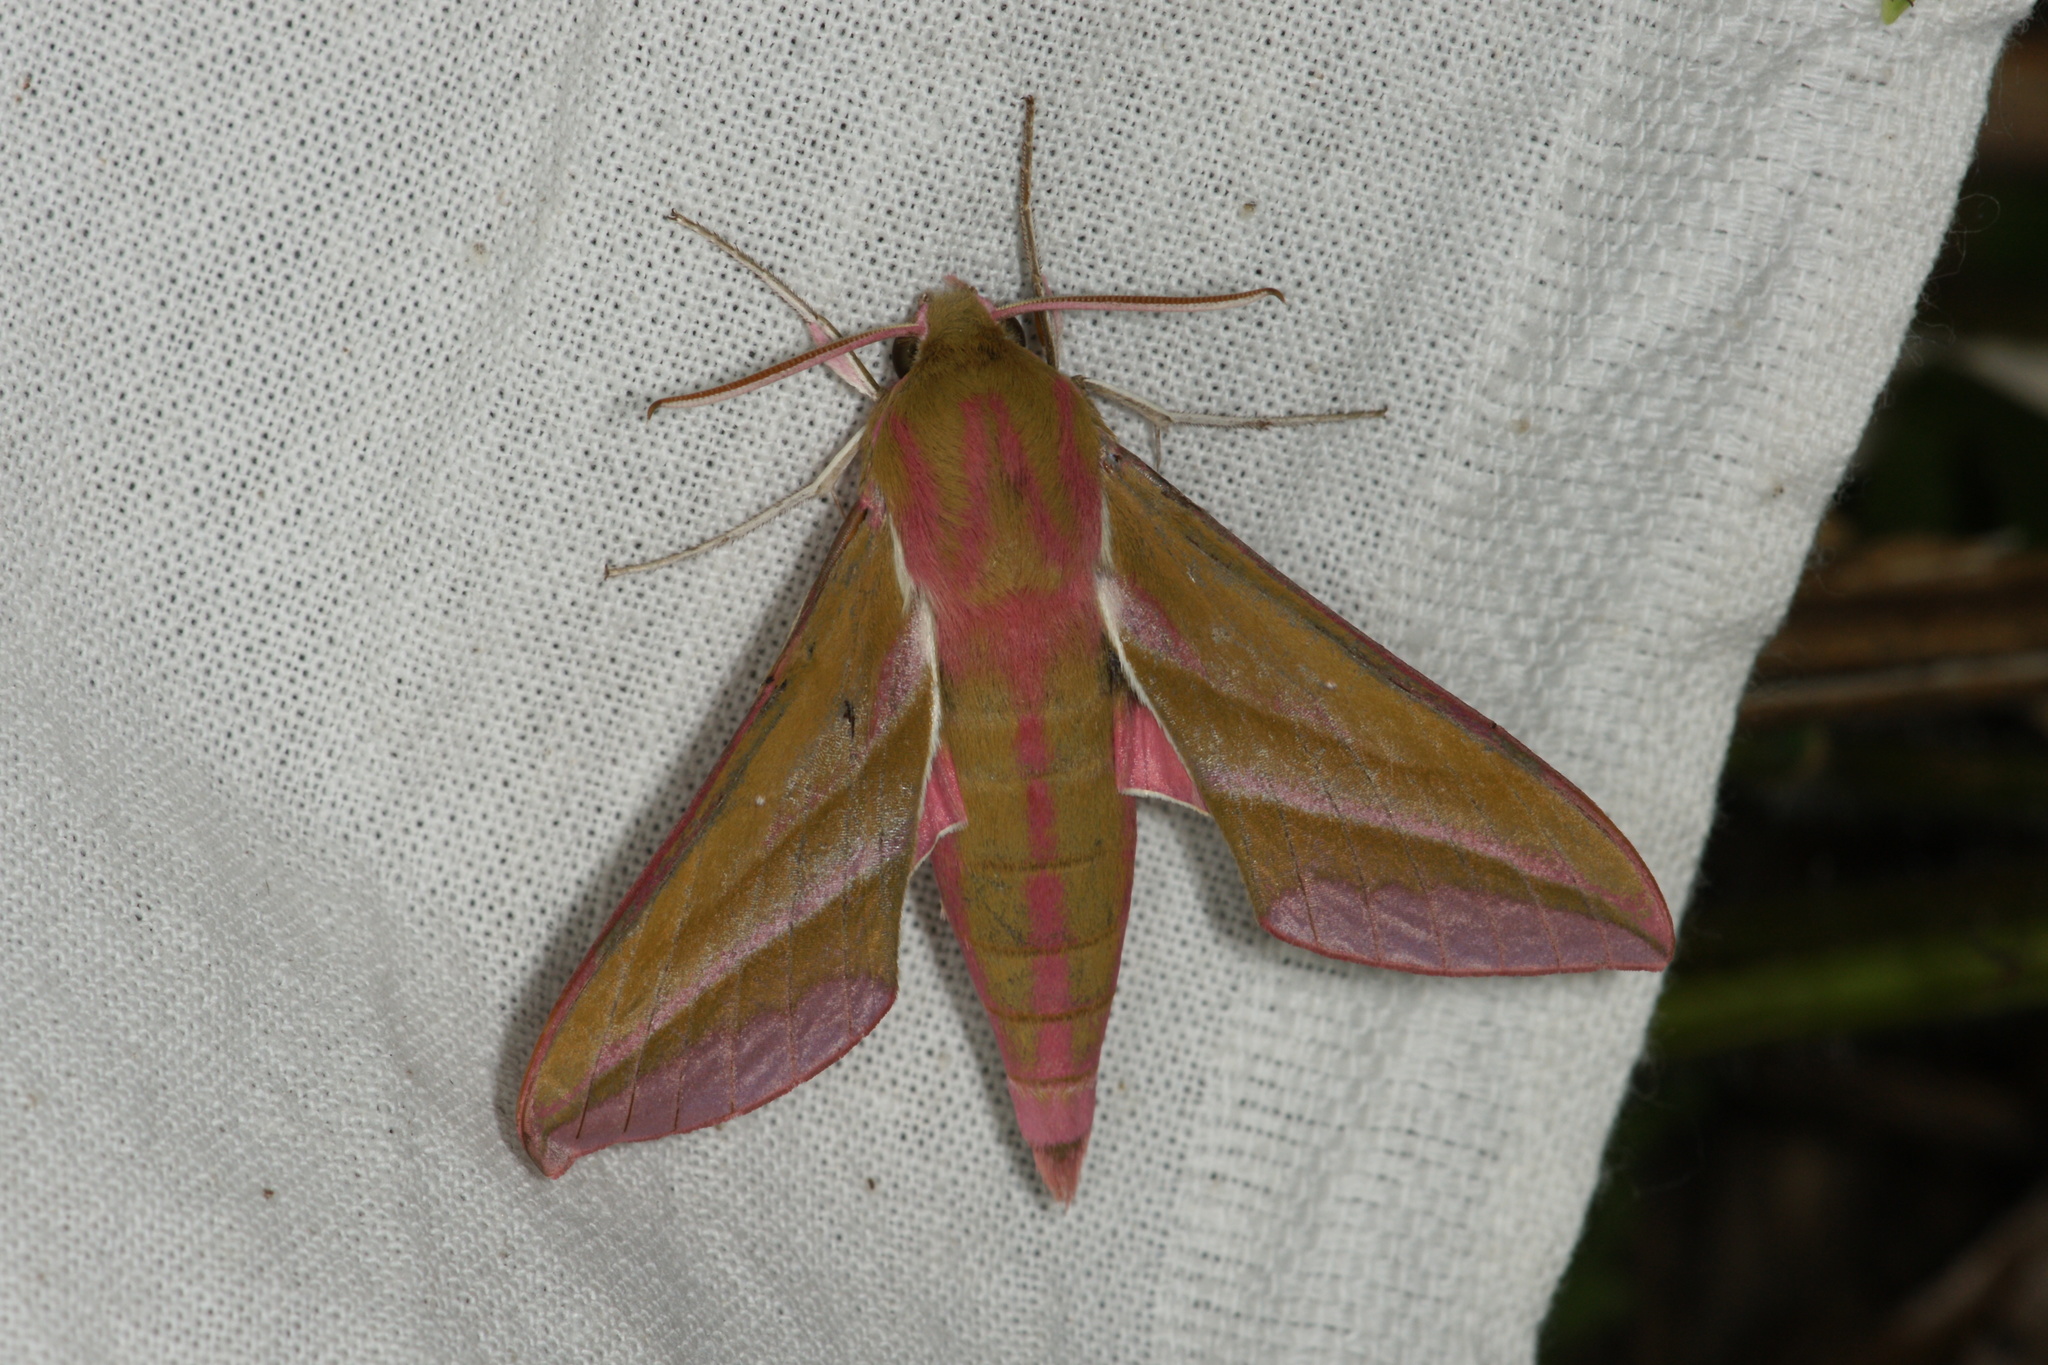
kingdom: Animalia
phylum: Arthropoda
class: Insecta
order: Lepidoptera
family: Sphingidae
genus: Deilephila
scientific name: Deilephila elpenor
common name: Elephant hawk-moth
